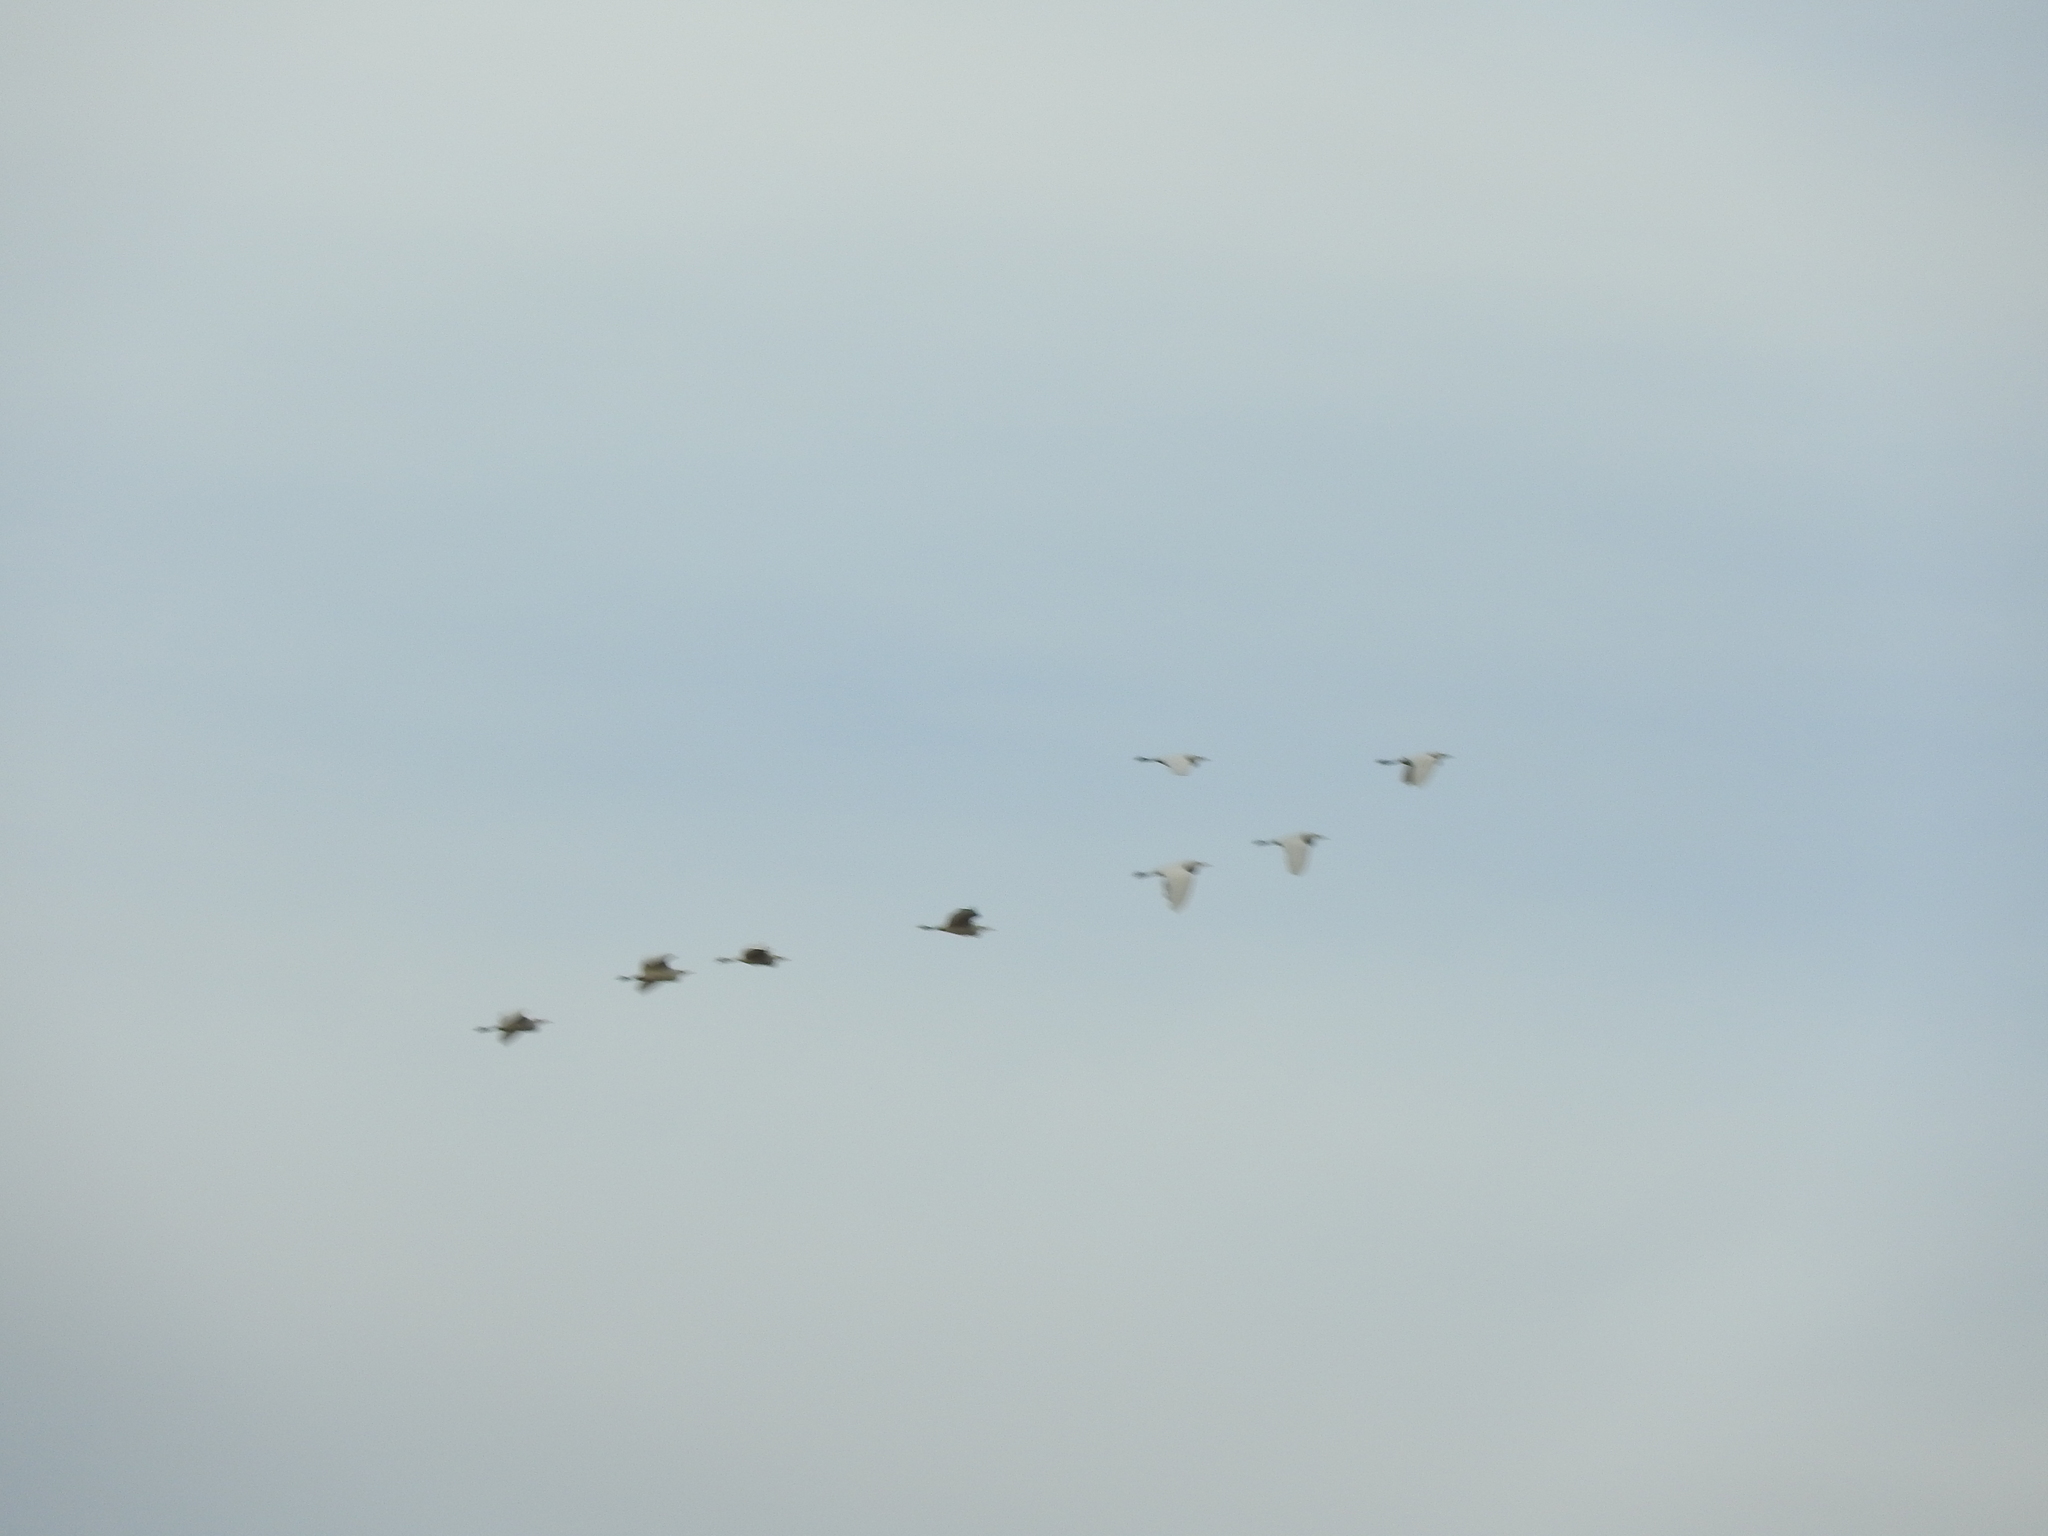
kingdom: Animalia
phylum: Chordata
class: Aves
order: Pelecaniformes
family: Ardeidae
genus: Bubulcus
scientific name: Bubulcus ibis
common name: Cattle egret
